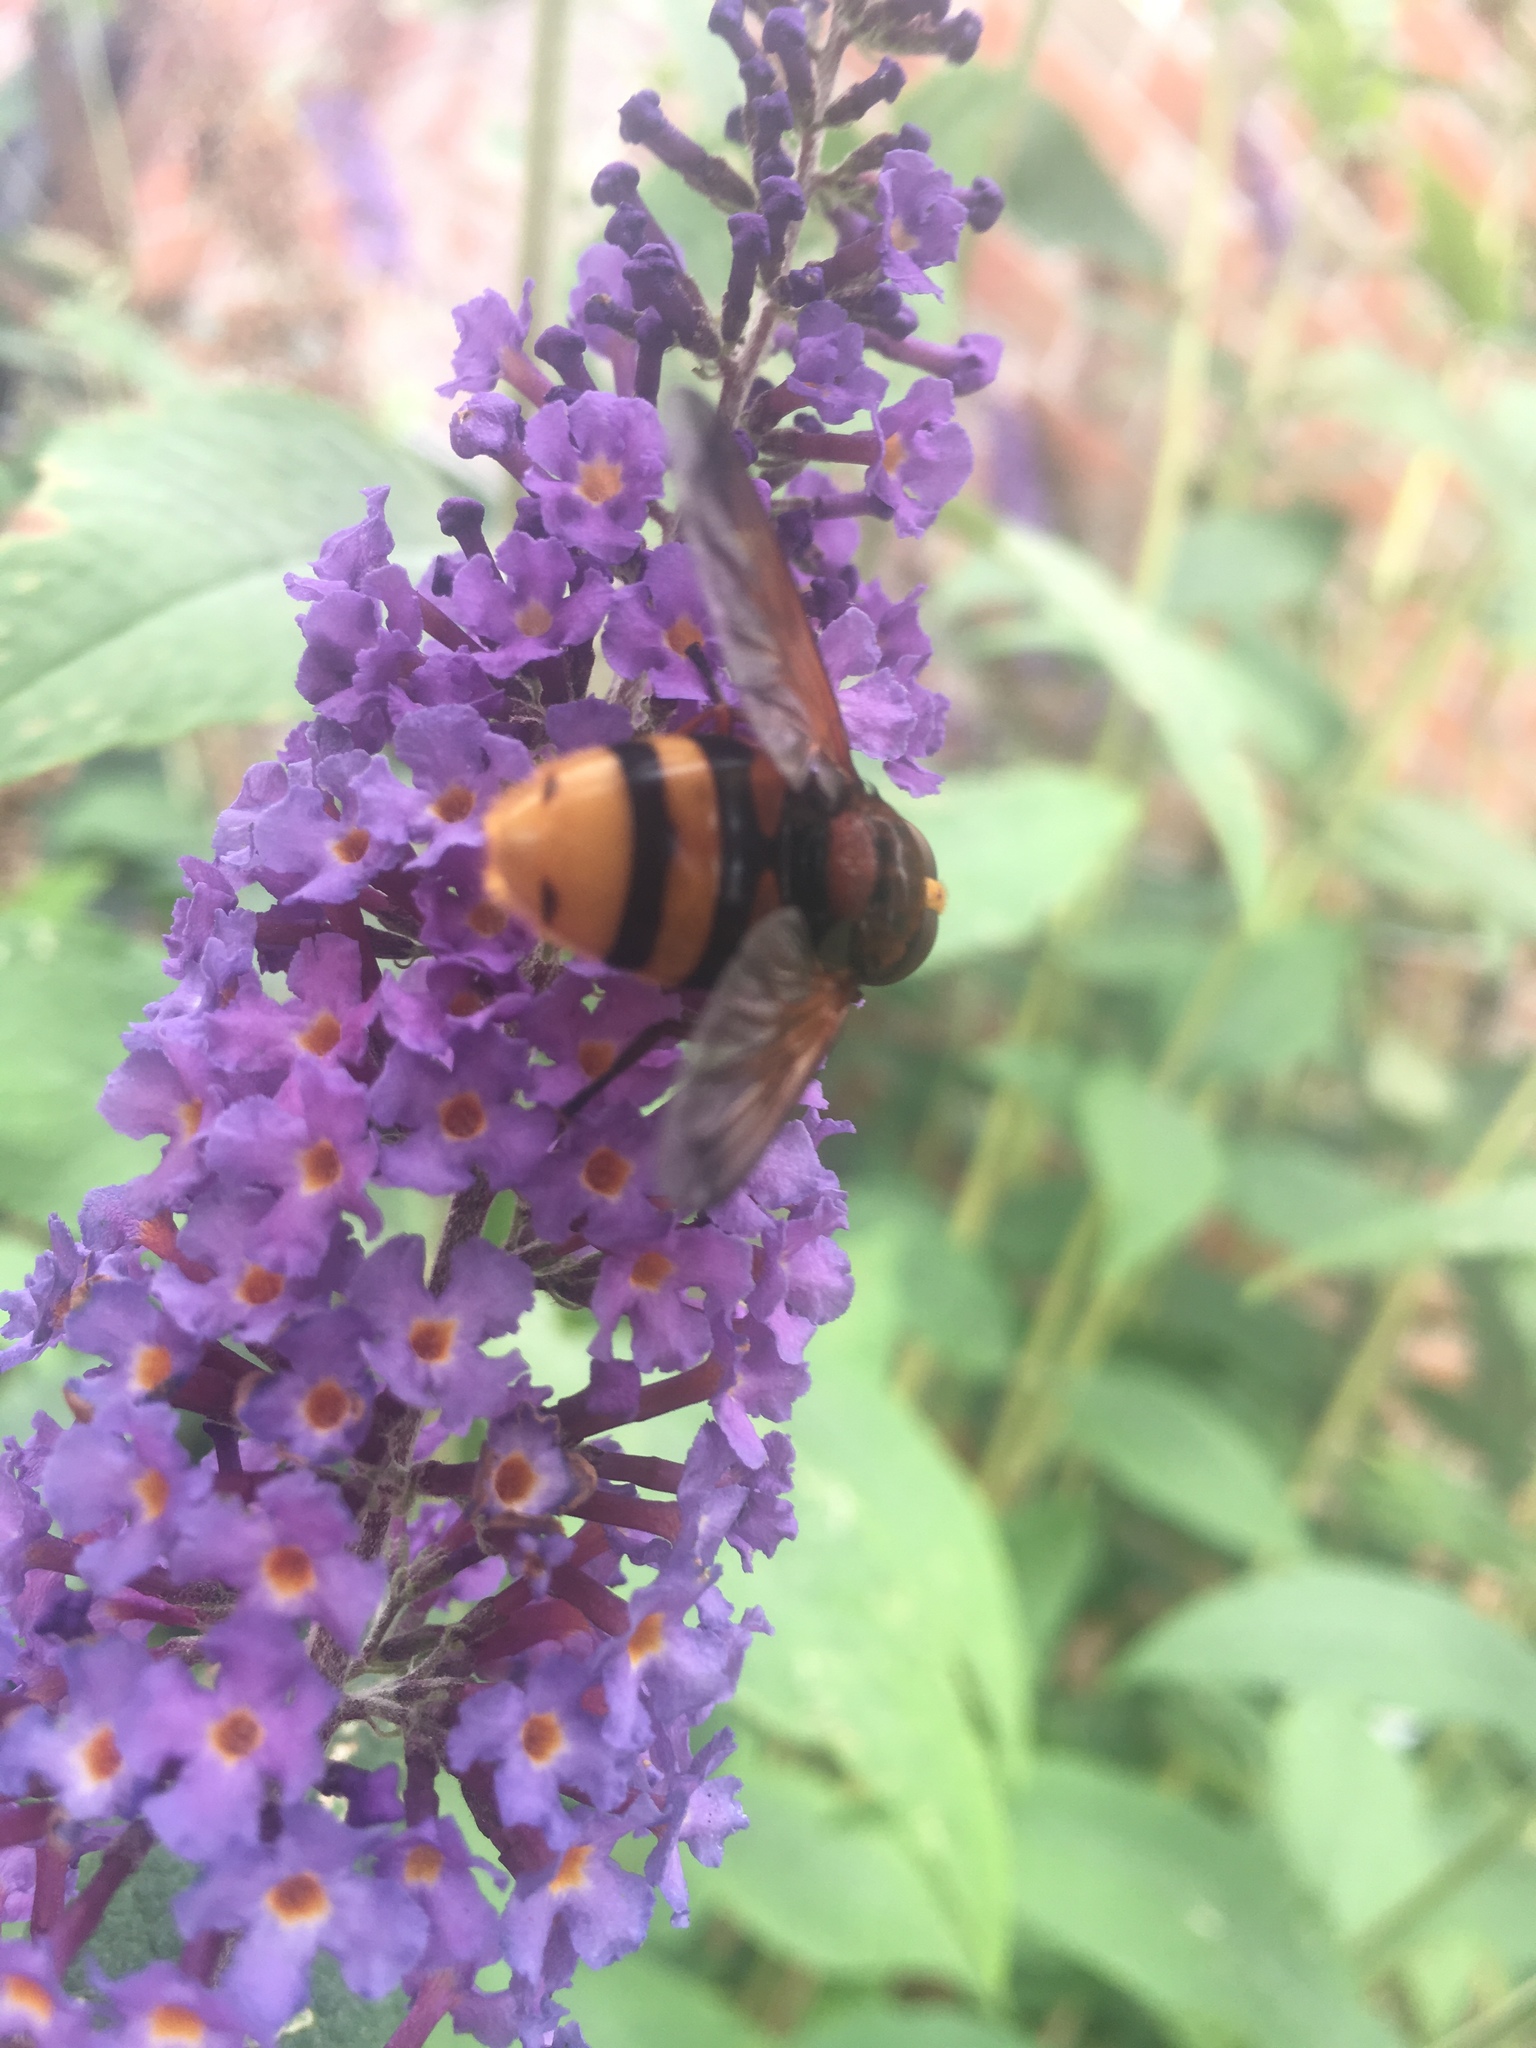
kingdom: Animalia
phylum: Arthropoda
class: Insecta
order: Diptera
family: Syrphidae
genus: Volucella
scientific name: Volucella zonaria
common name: Hornet hoverfly
